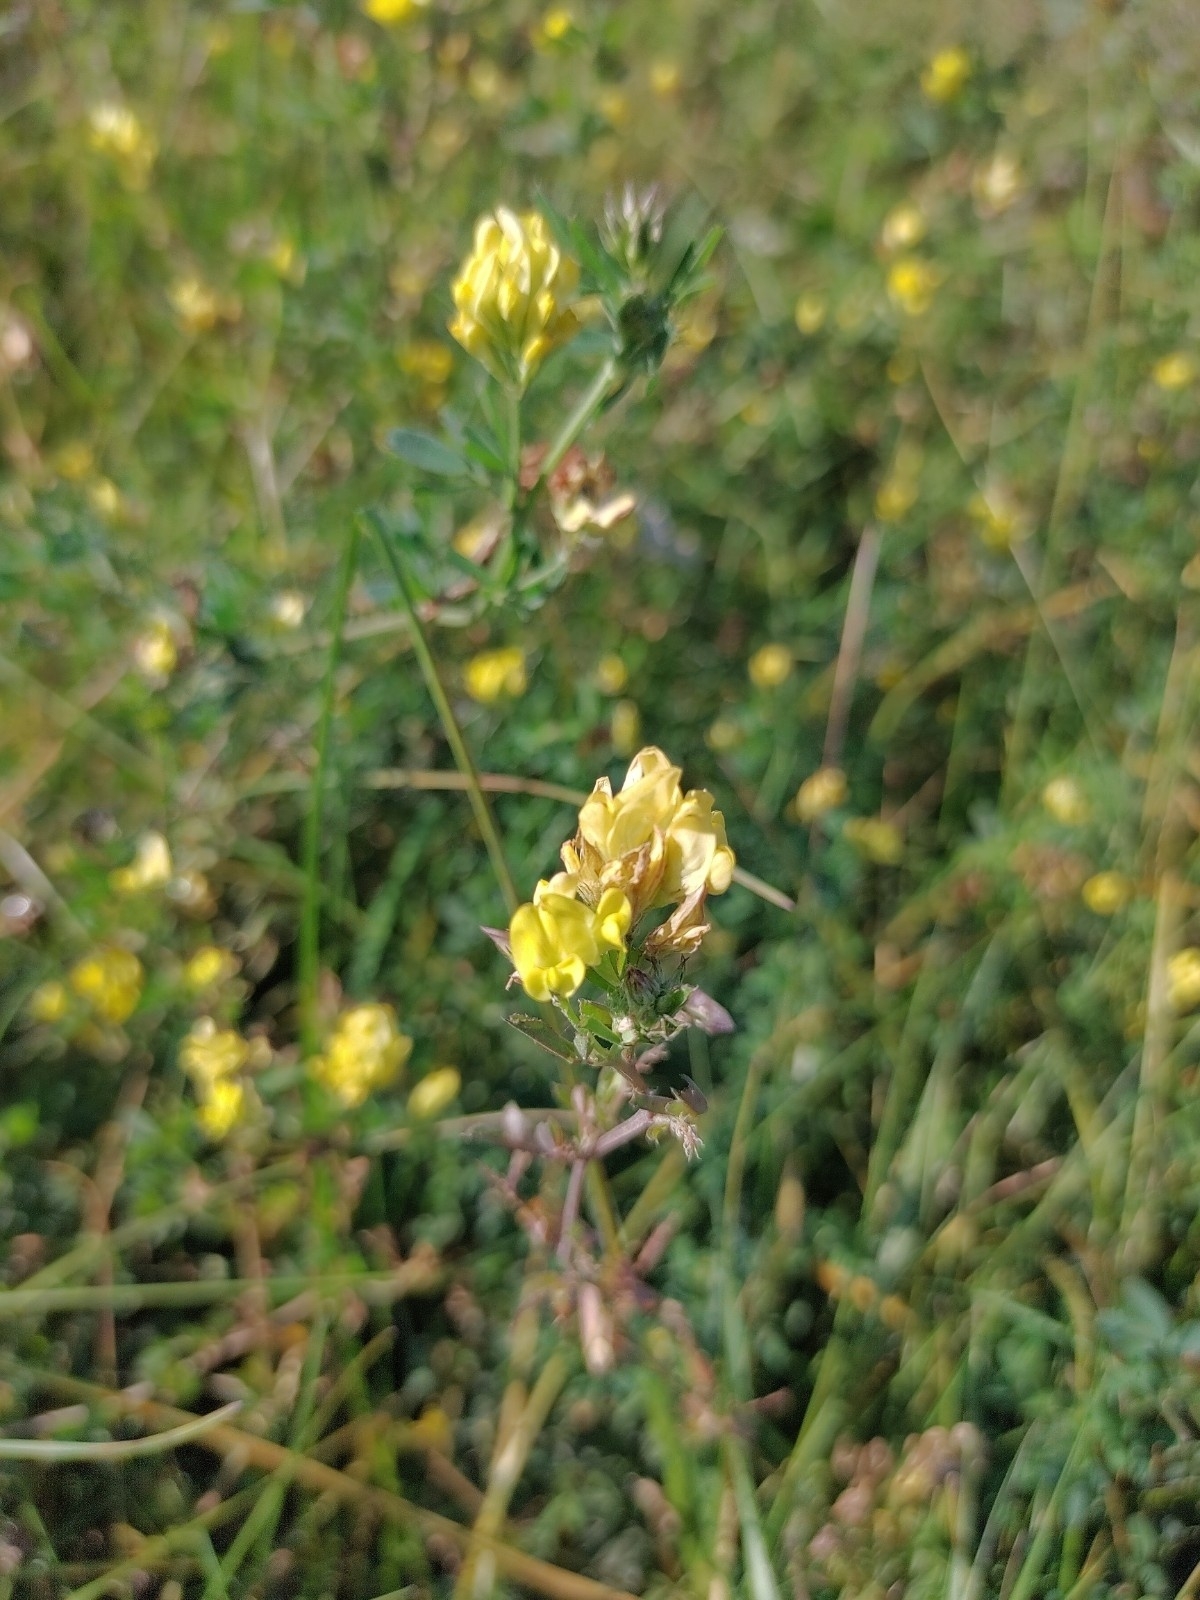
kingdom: Plantae
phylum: Tracheophyta
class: Magnoliopsida
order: Fabales
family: Fabaceae
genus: Medicago
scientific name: Medicago falcata
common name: Sickle medick
